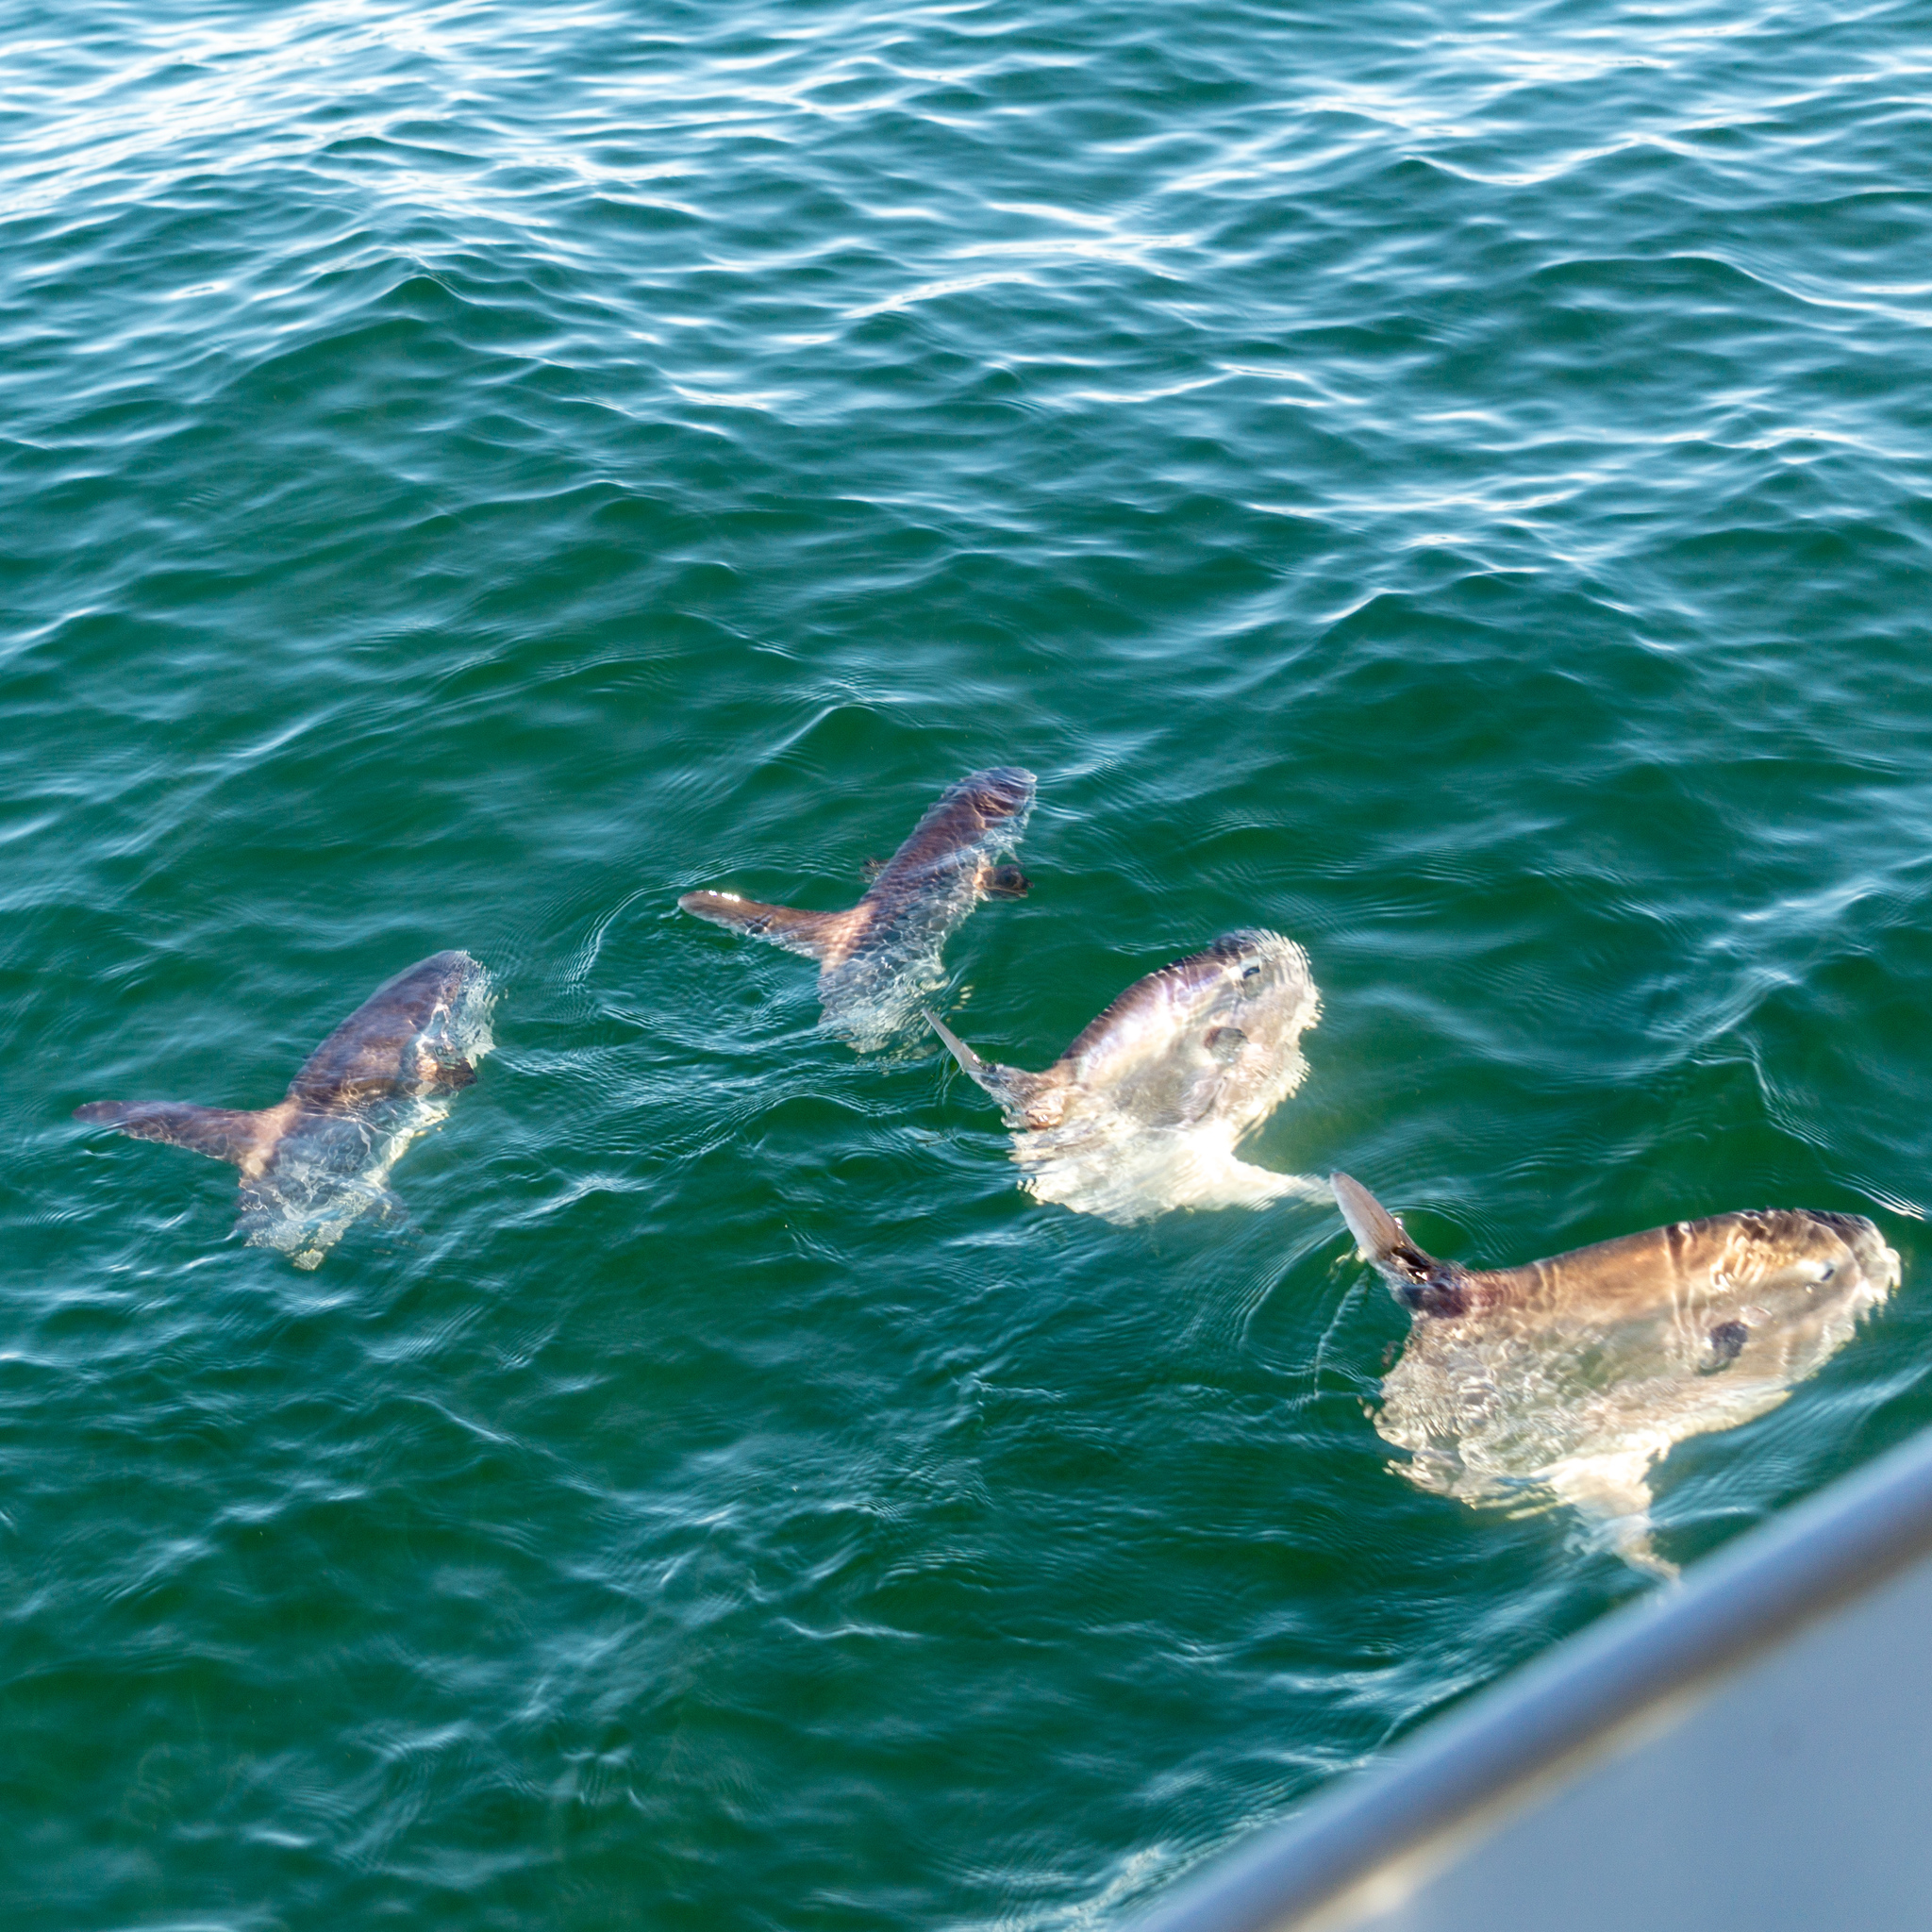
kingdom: Animalia
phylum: Chordata
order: Tetraodontiformes
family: Molidae
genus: Mola
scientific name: Mola mola
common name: Ocean sunfish
